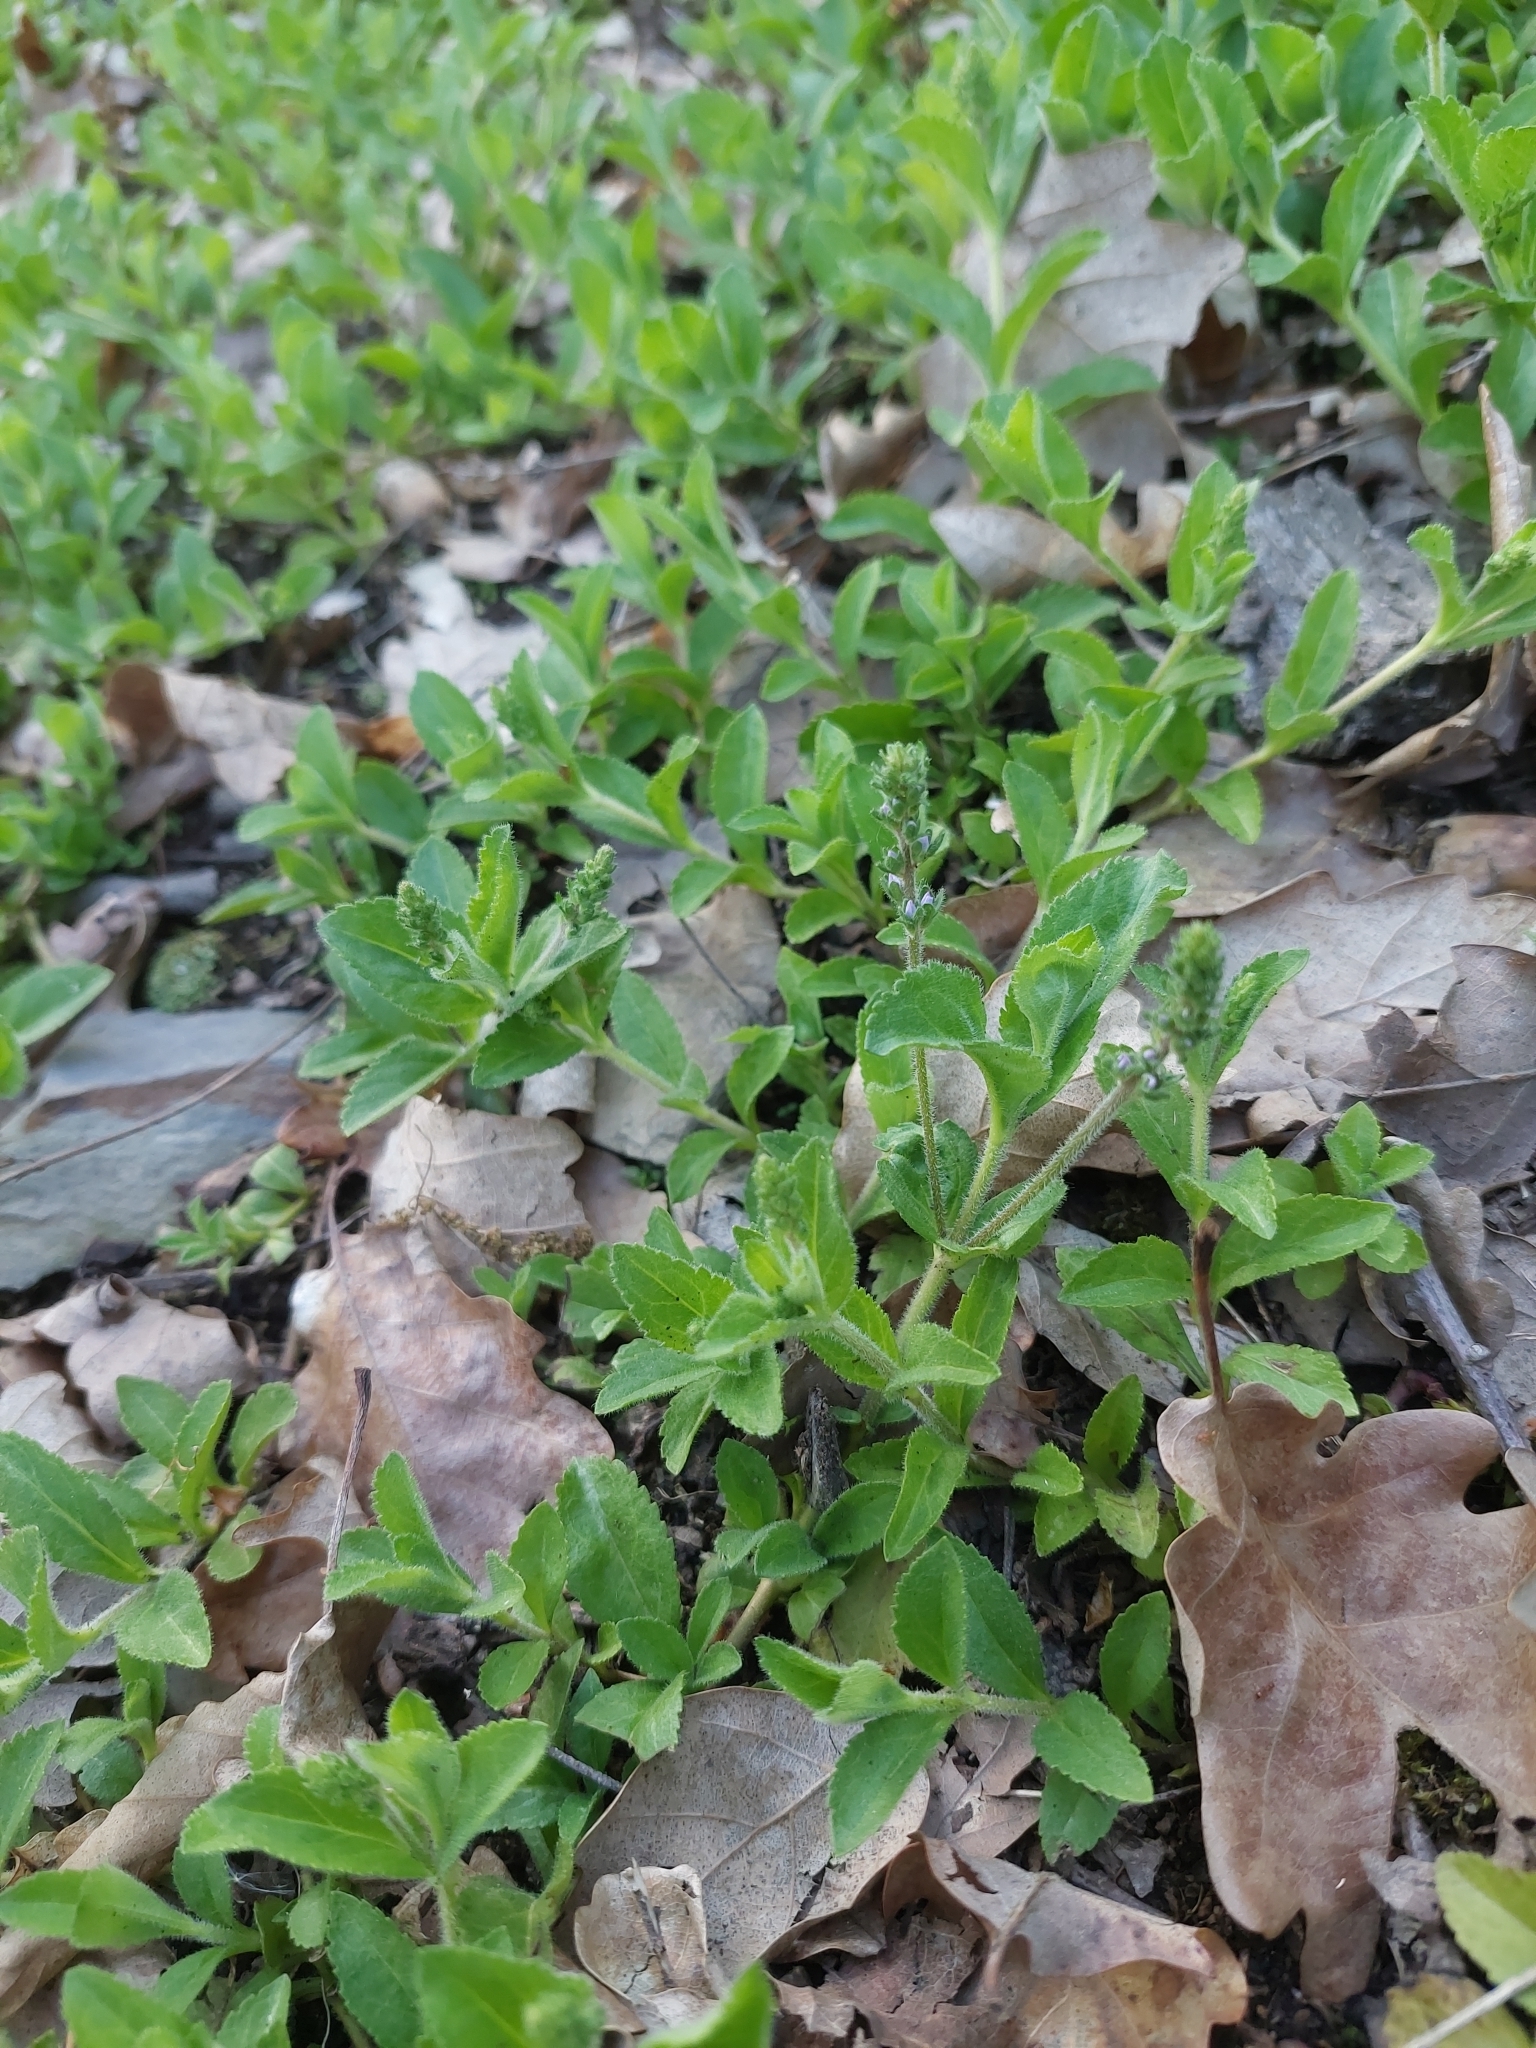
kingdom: Plantae
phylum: Tracheophyta
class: Magnoliopsida
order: Lamiales
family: Plantaginaceae
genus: Veronica
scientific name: Veronica officinalis
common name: Common speedwell
